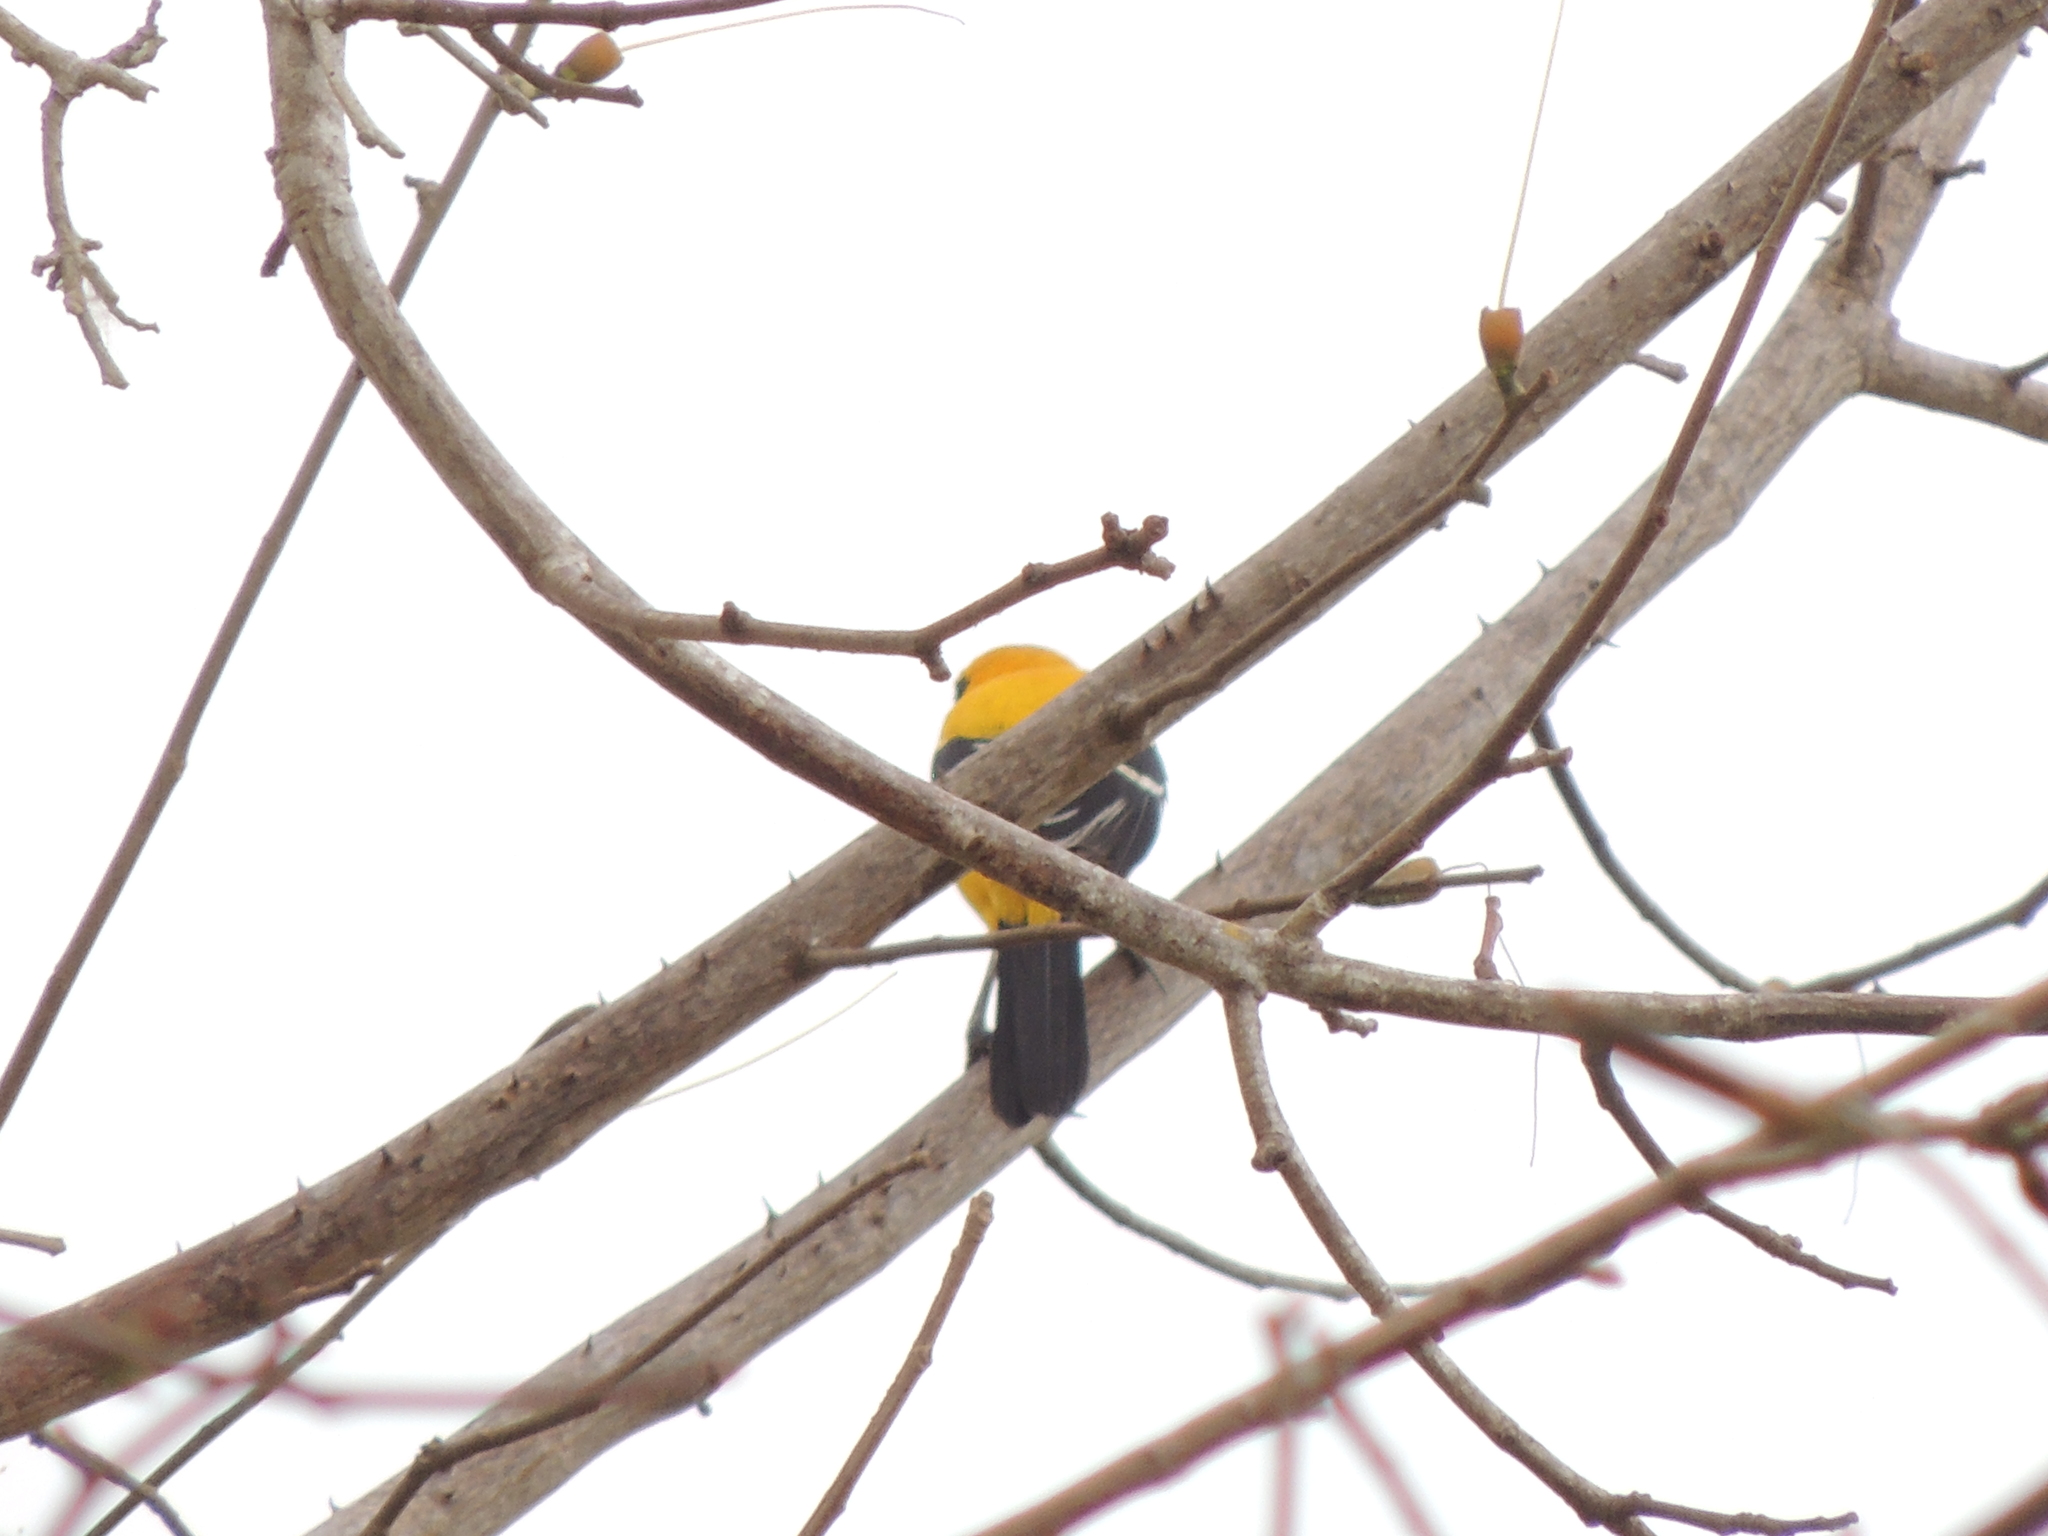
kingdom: Animalia
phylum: Chordata
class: Aves
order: Passeriformes
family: Icteridae
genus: Icterus
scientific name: Icterus nigrogularis
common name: Yellow oriole
